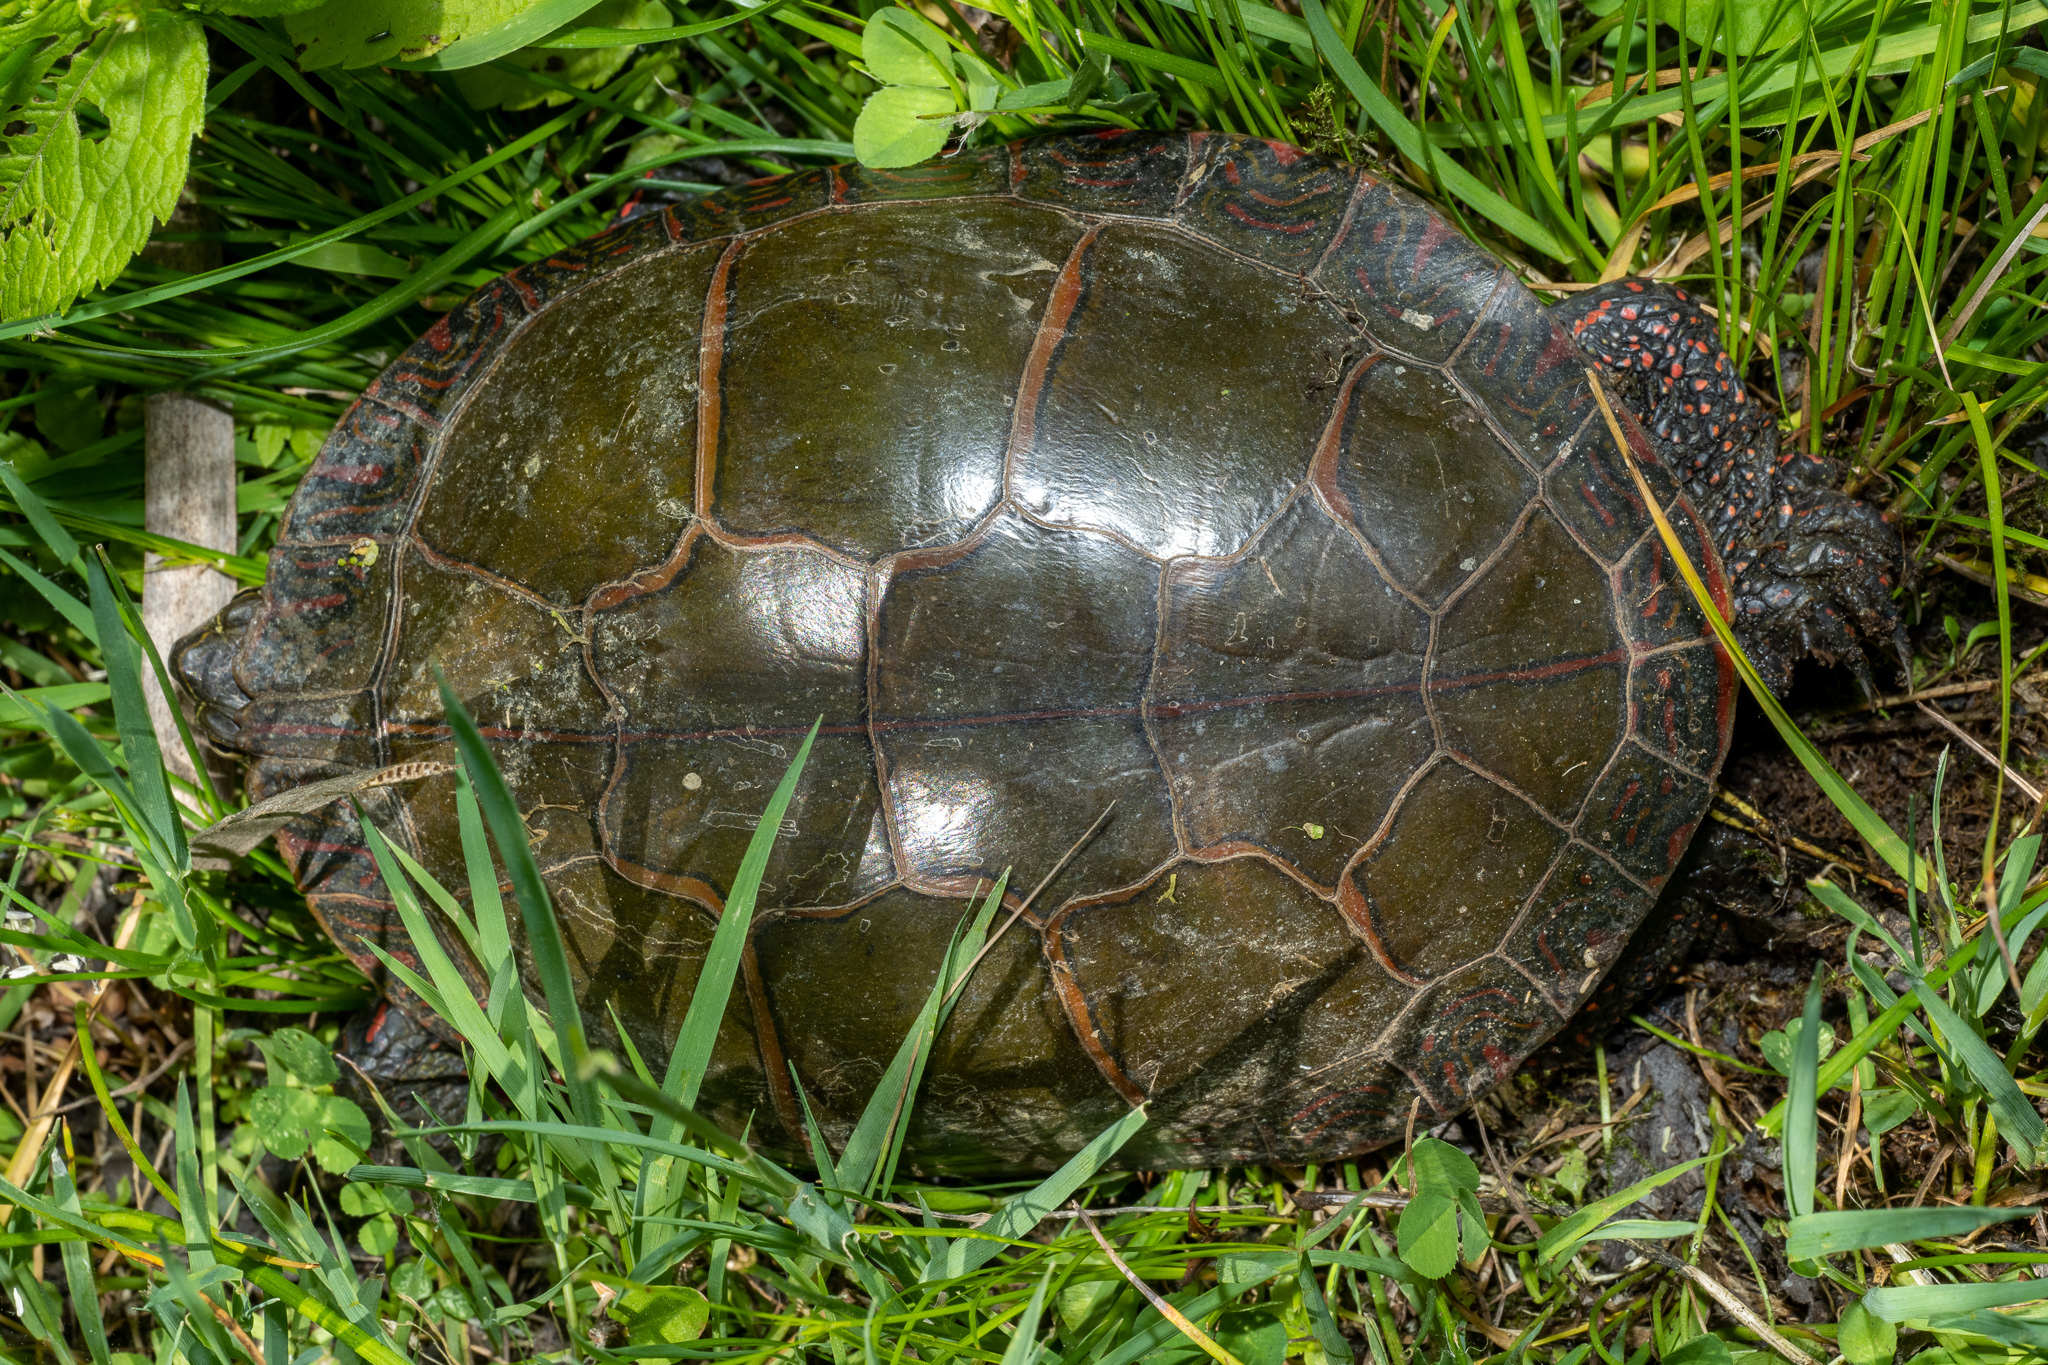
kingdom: Animalia
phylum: Chordata
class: Testudines
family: Emydidae
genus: Chrysemys
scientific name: Chrysemys picta
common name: Painted turtle
